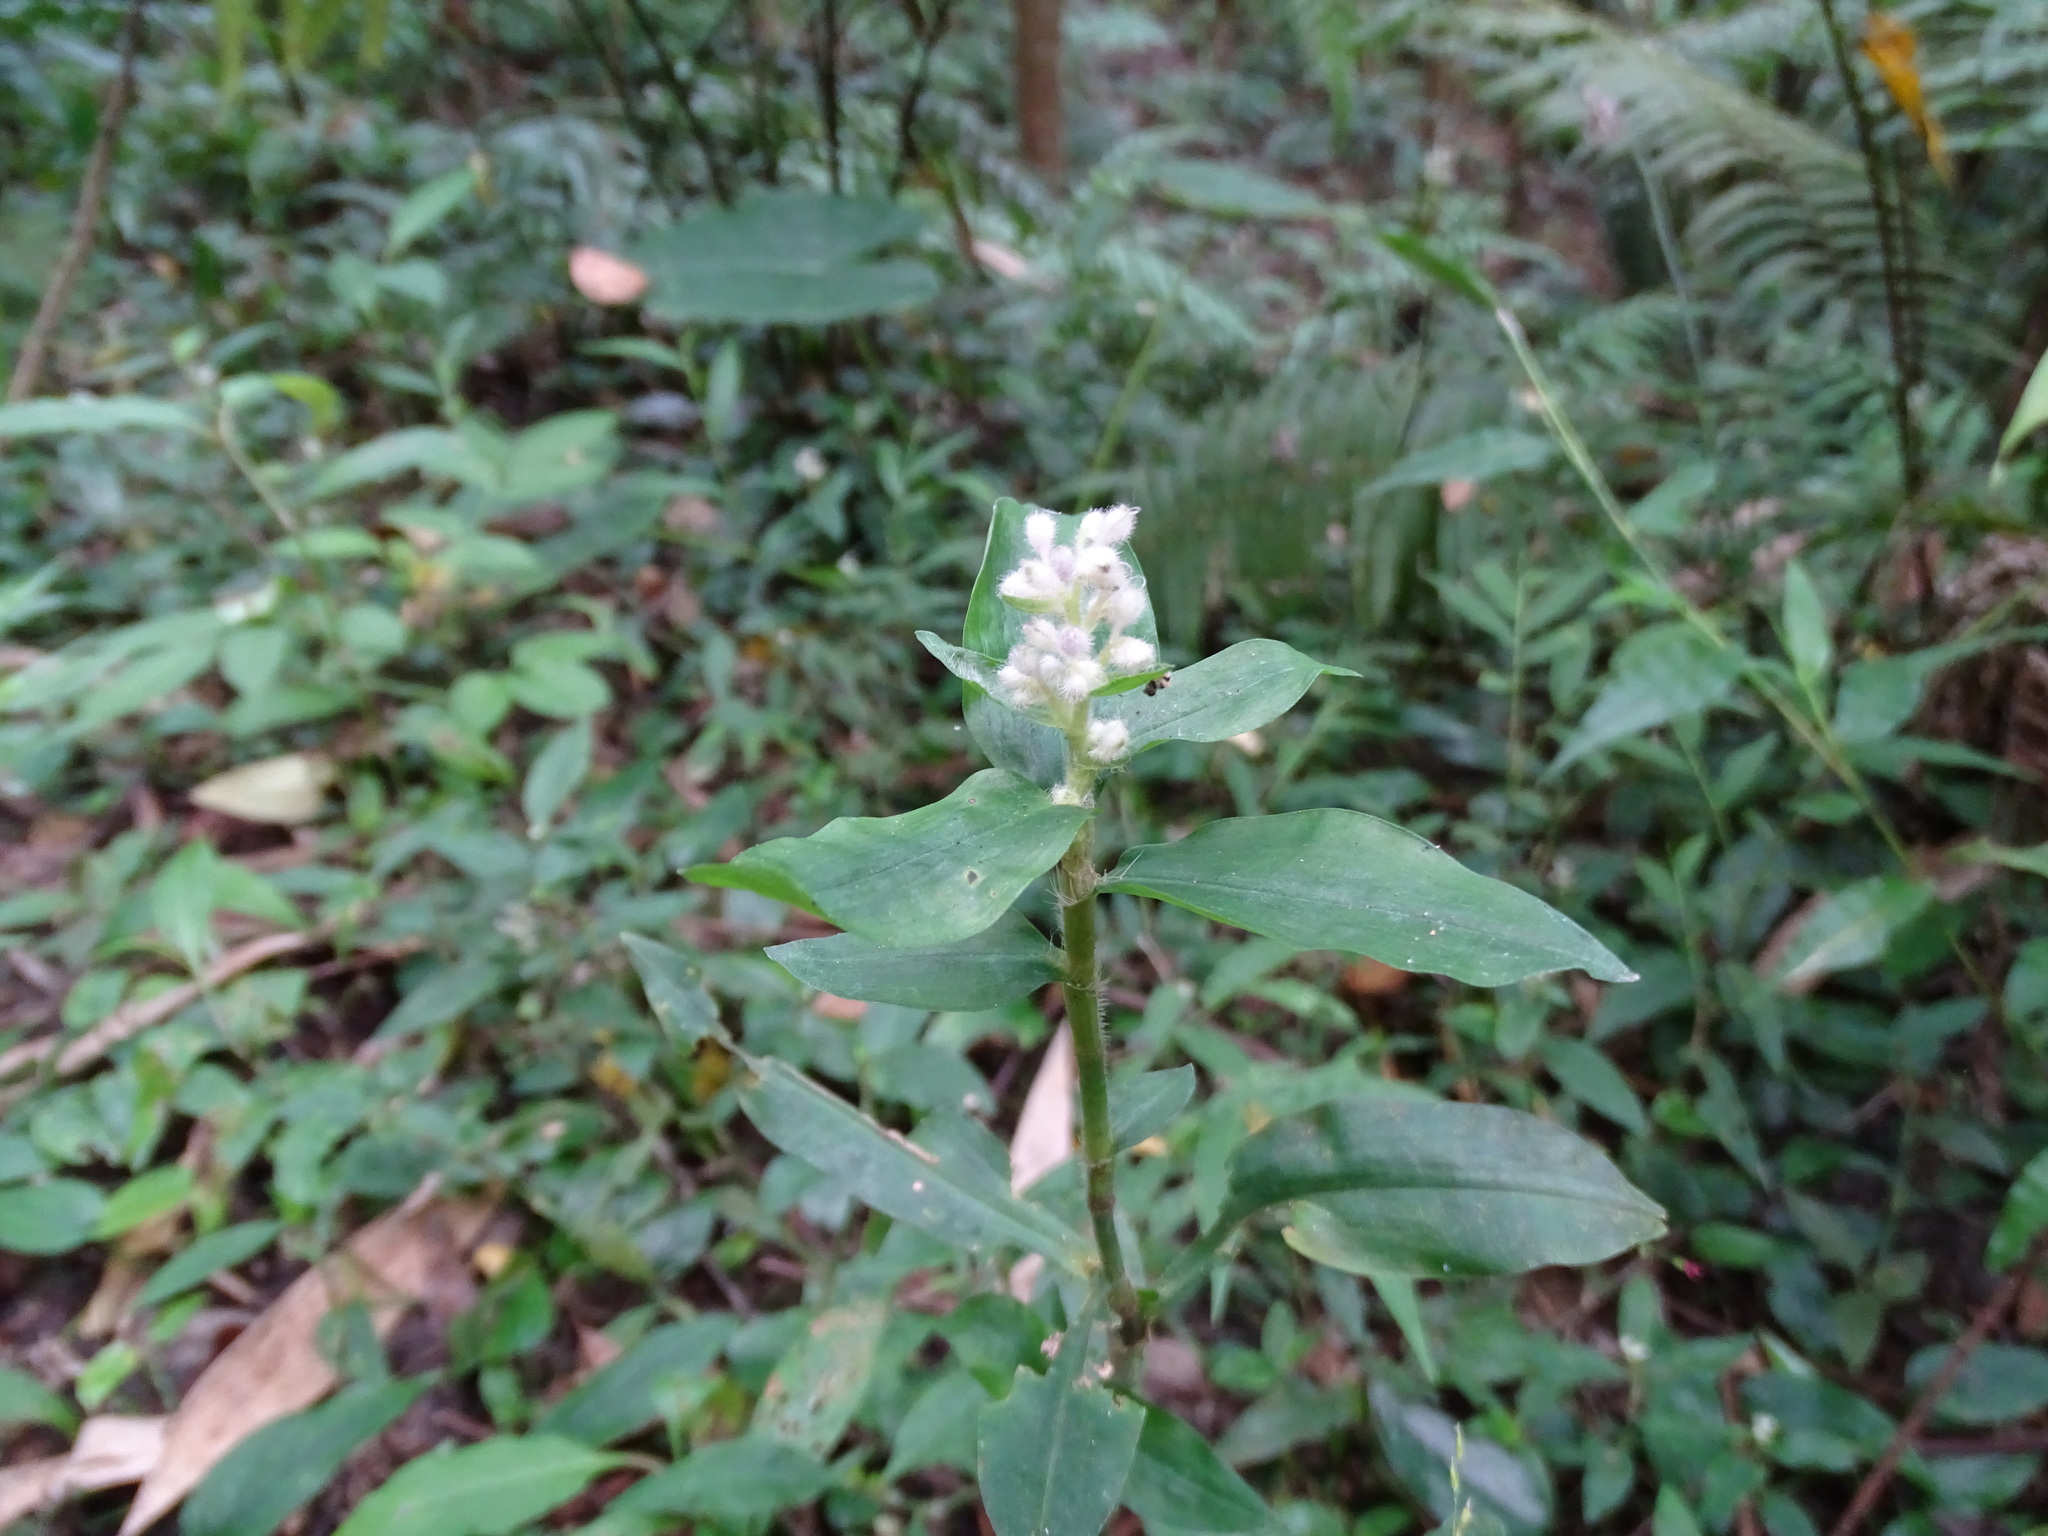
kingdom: Plantae
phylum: Tracheophyta
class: Liliopsida
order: Commelinales
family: Commelinaceae
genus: Floscopa
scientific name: Floscopa scandens
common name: Climbing flower cup
